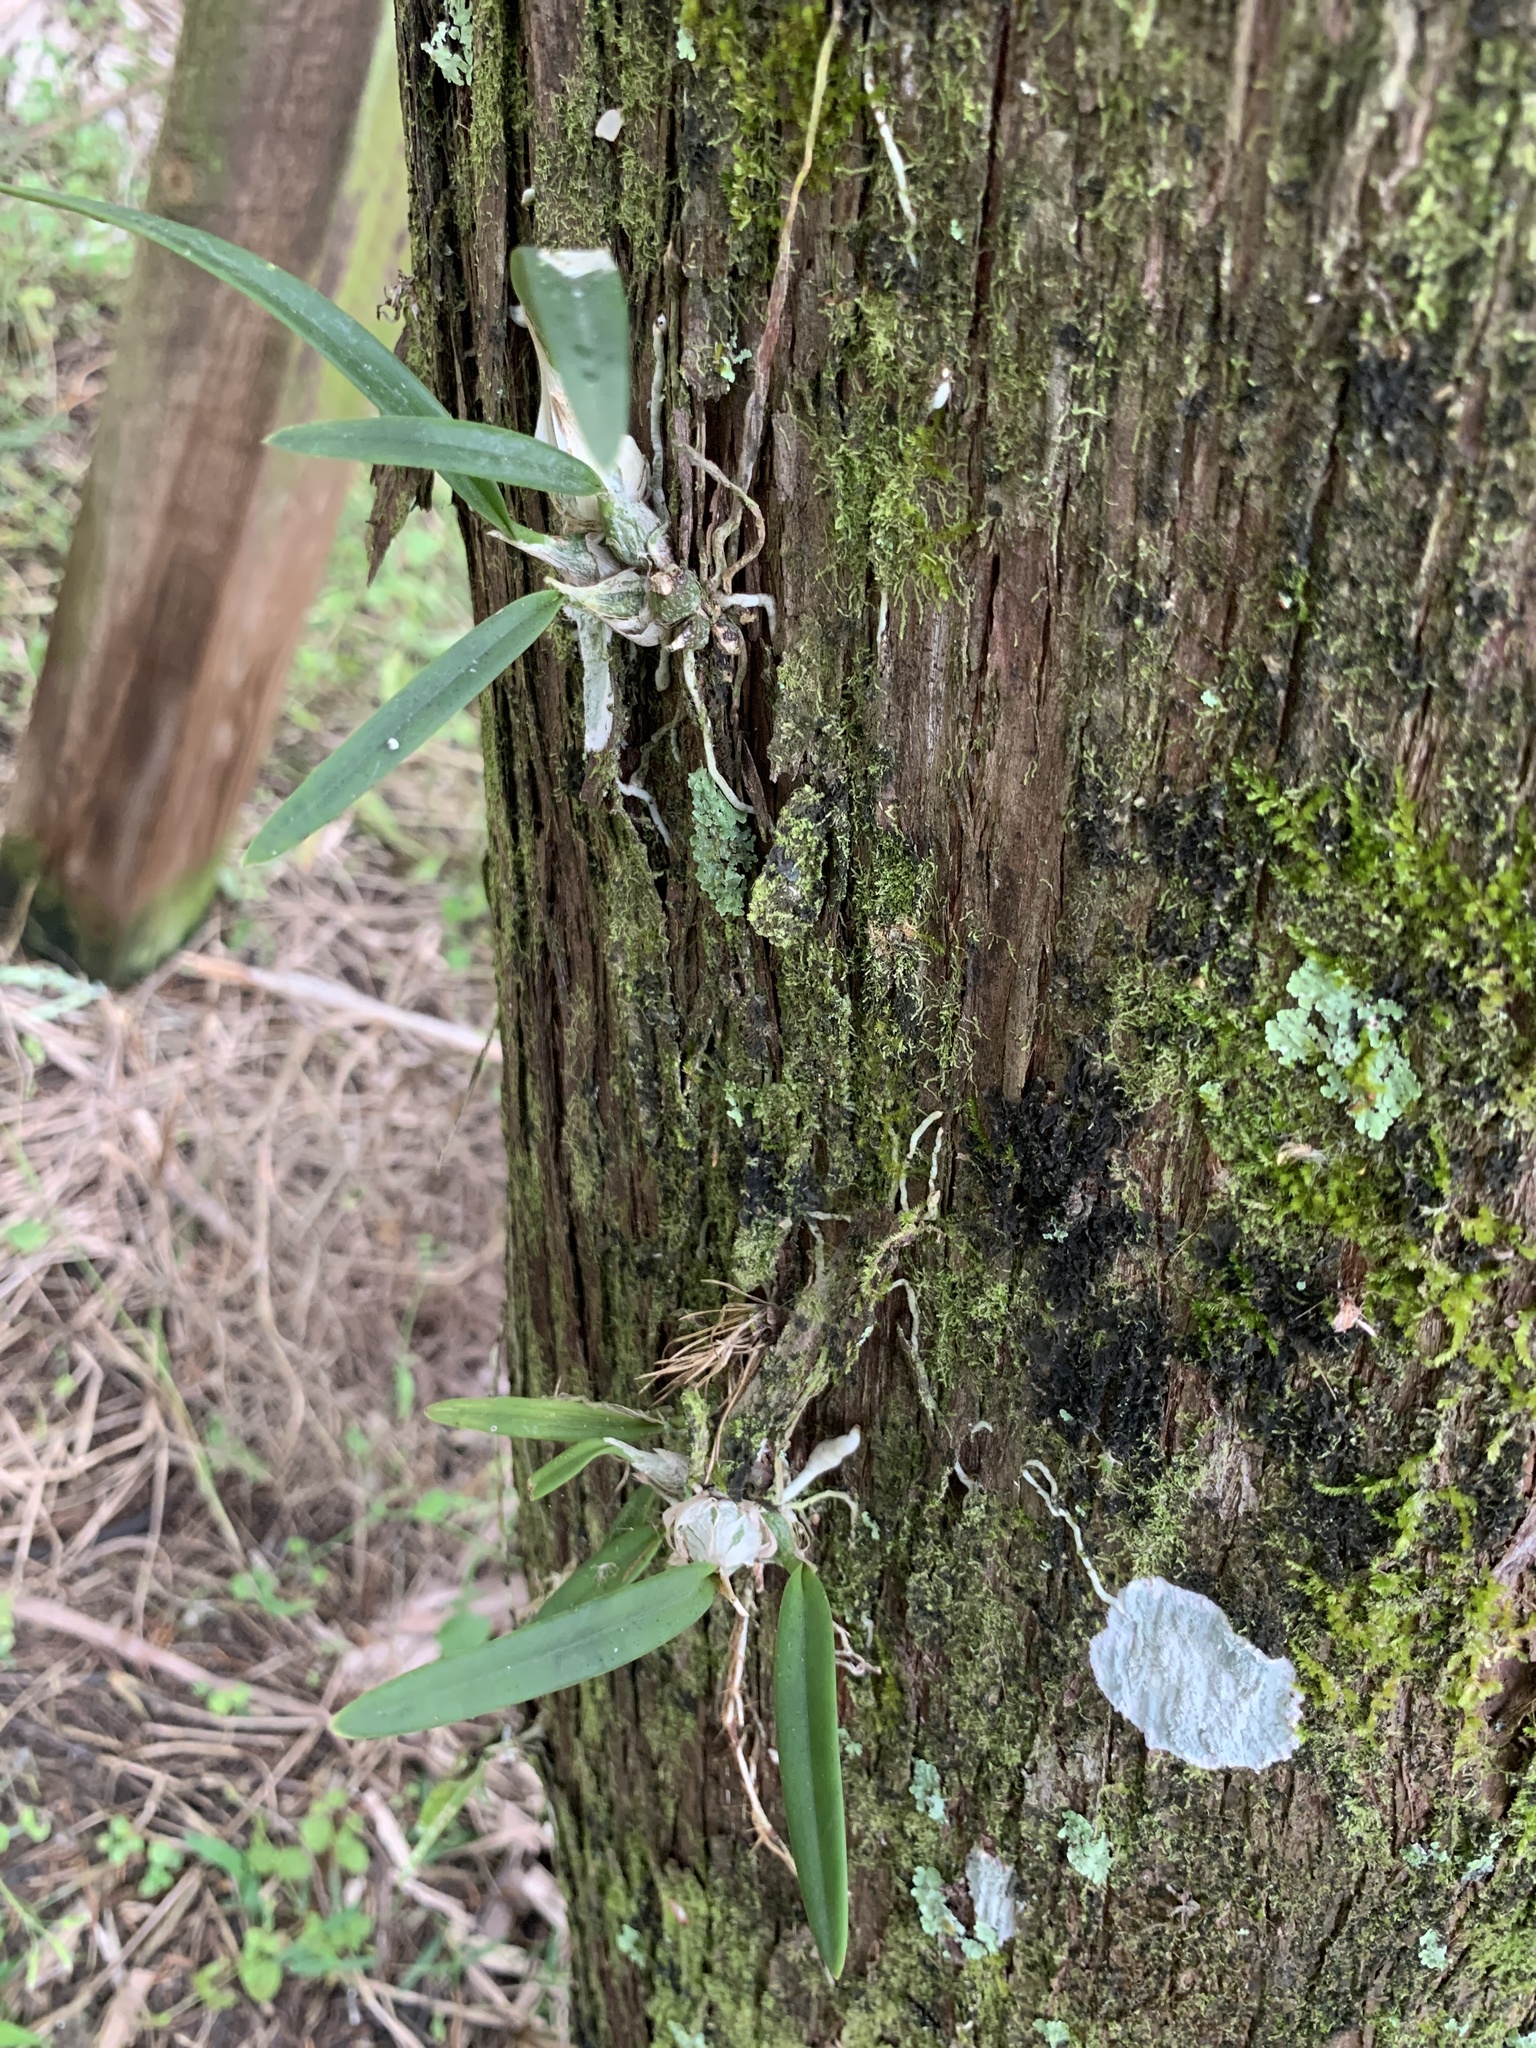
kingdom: Plantae
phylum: Tracheophyta
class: Liliopsida
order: Asparagales
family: Orchidaceae
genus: Encyclia
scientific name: Encyclia tampensis
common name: Florida butterfly orchid
